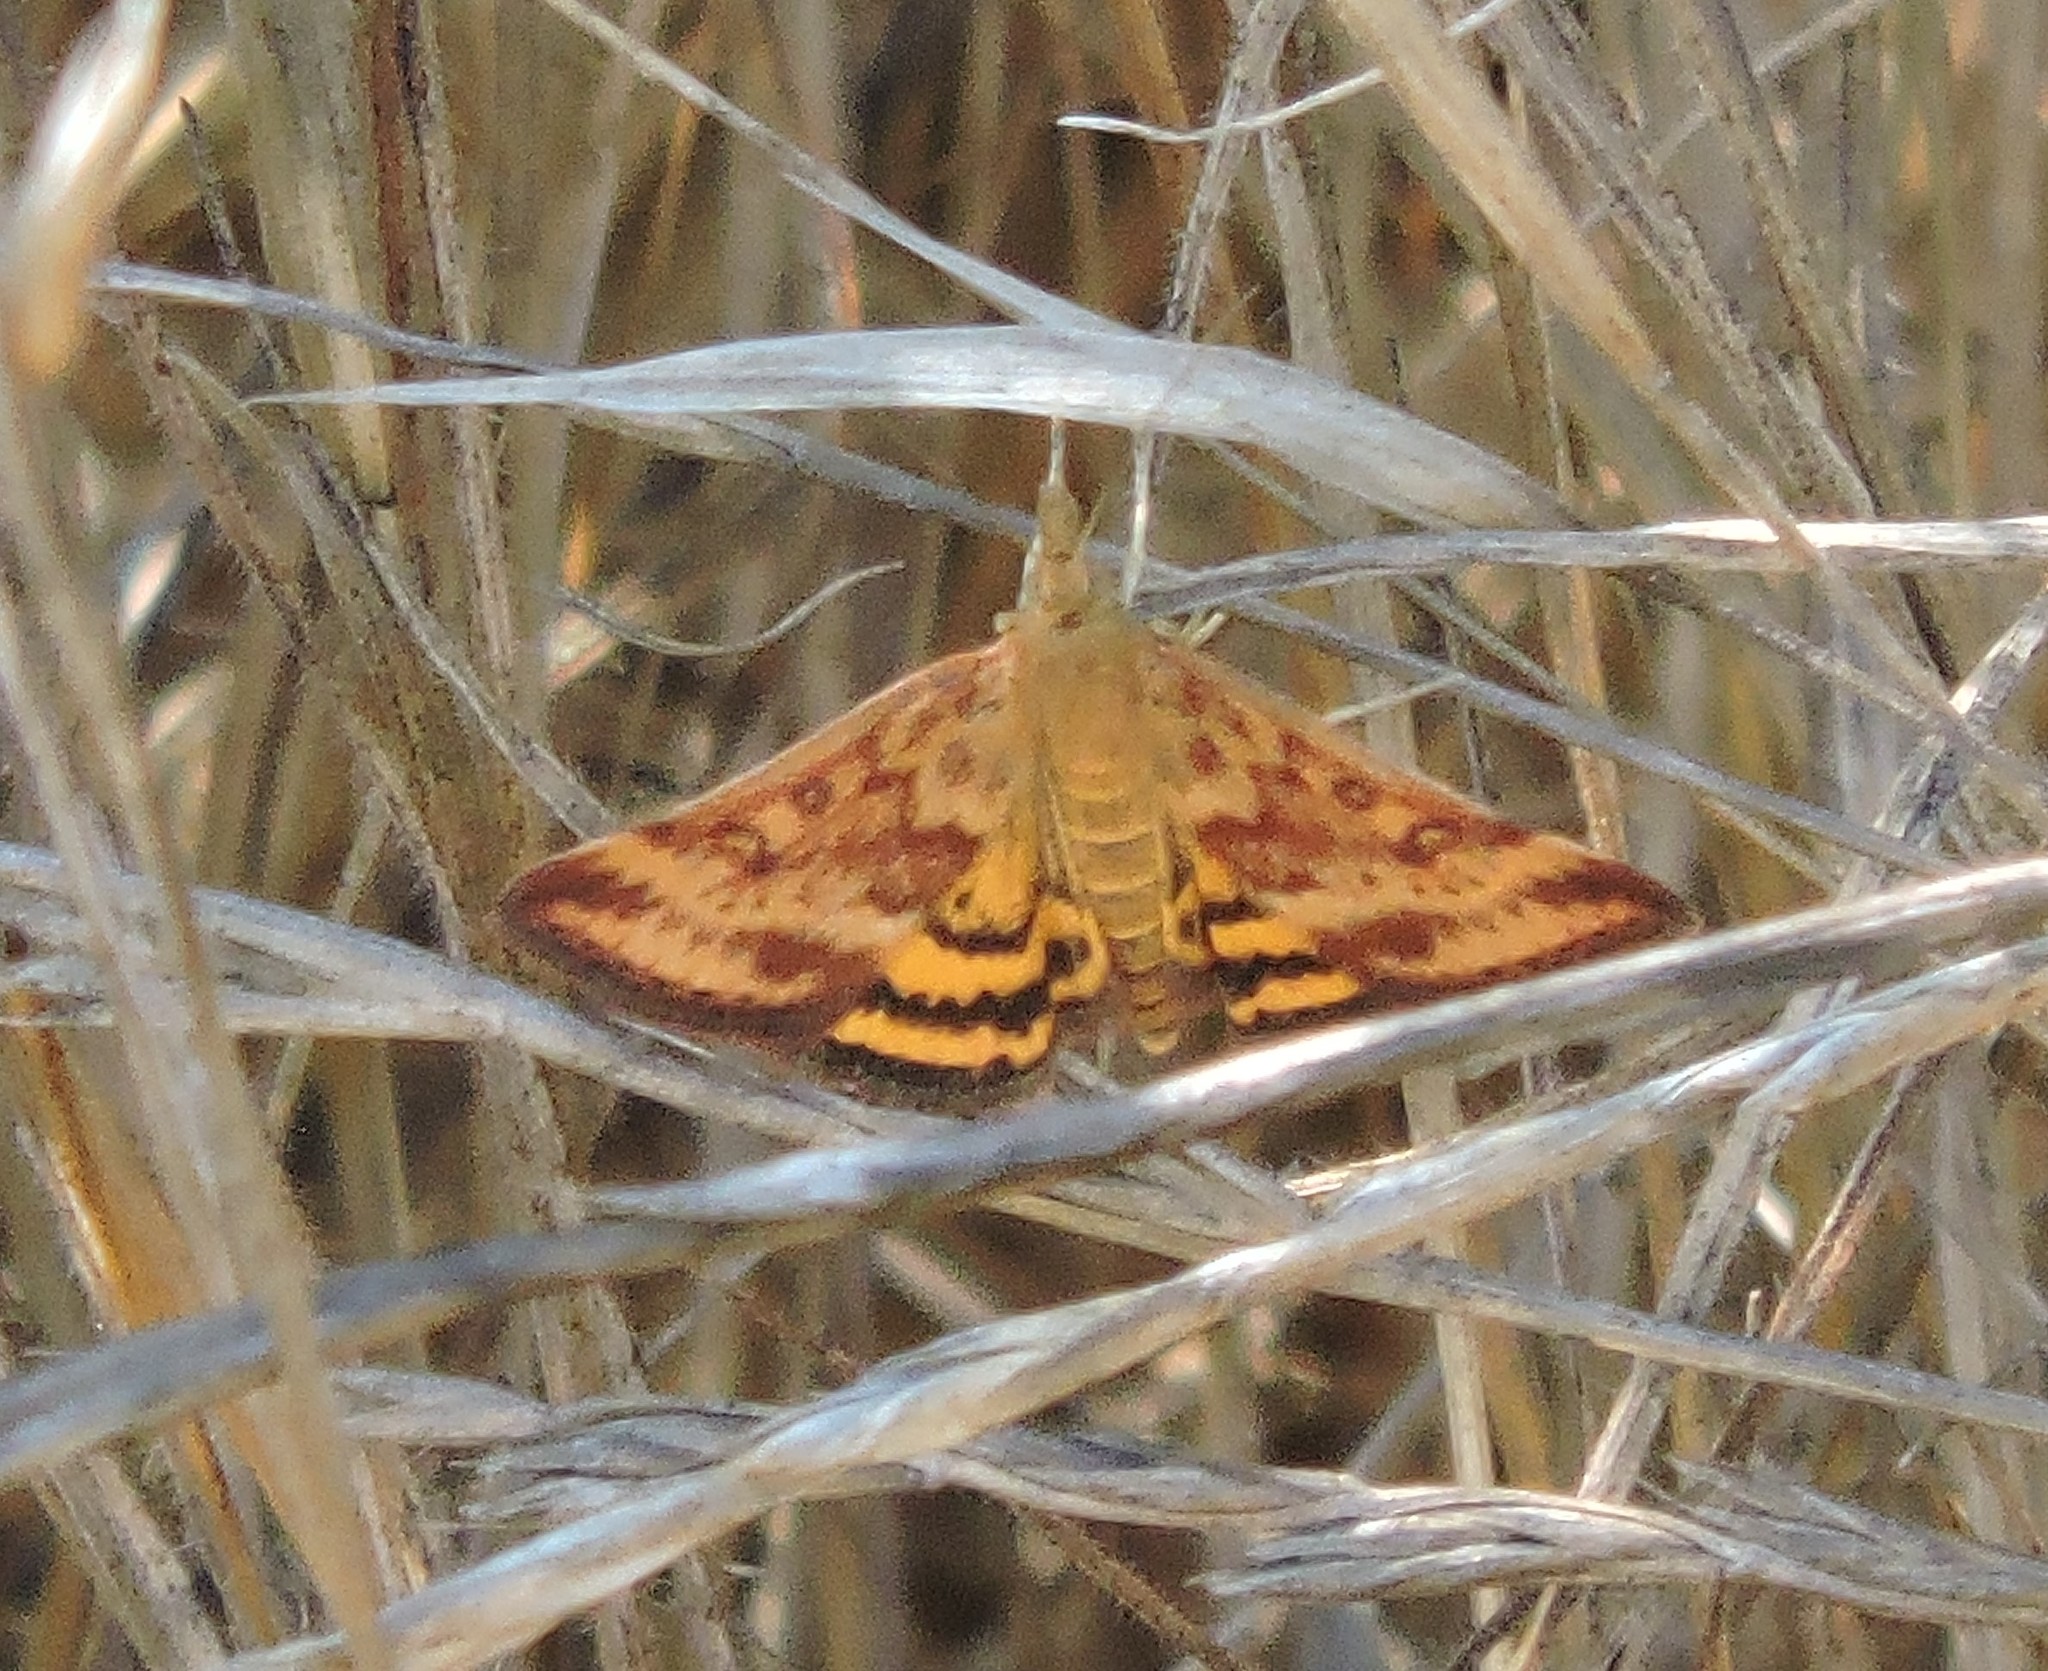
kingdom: Animalia
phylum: Arthropoda
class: Insecta
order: Lepidoptera
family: Crambidae
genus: Pyrausta
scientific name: Pyrausta subsequalis
